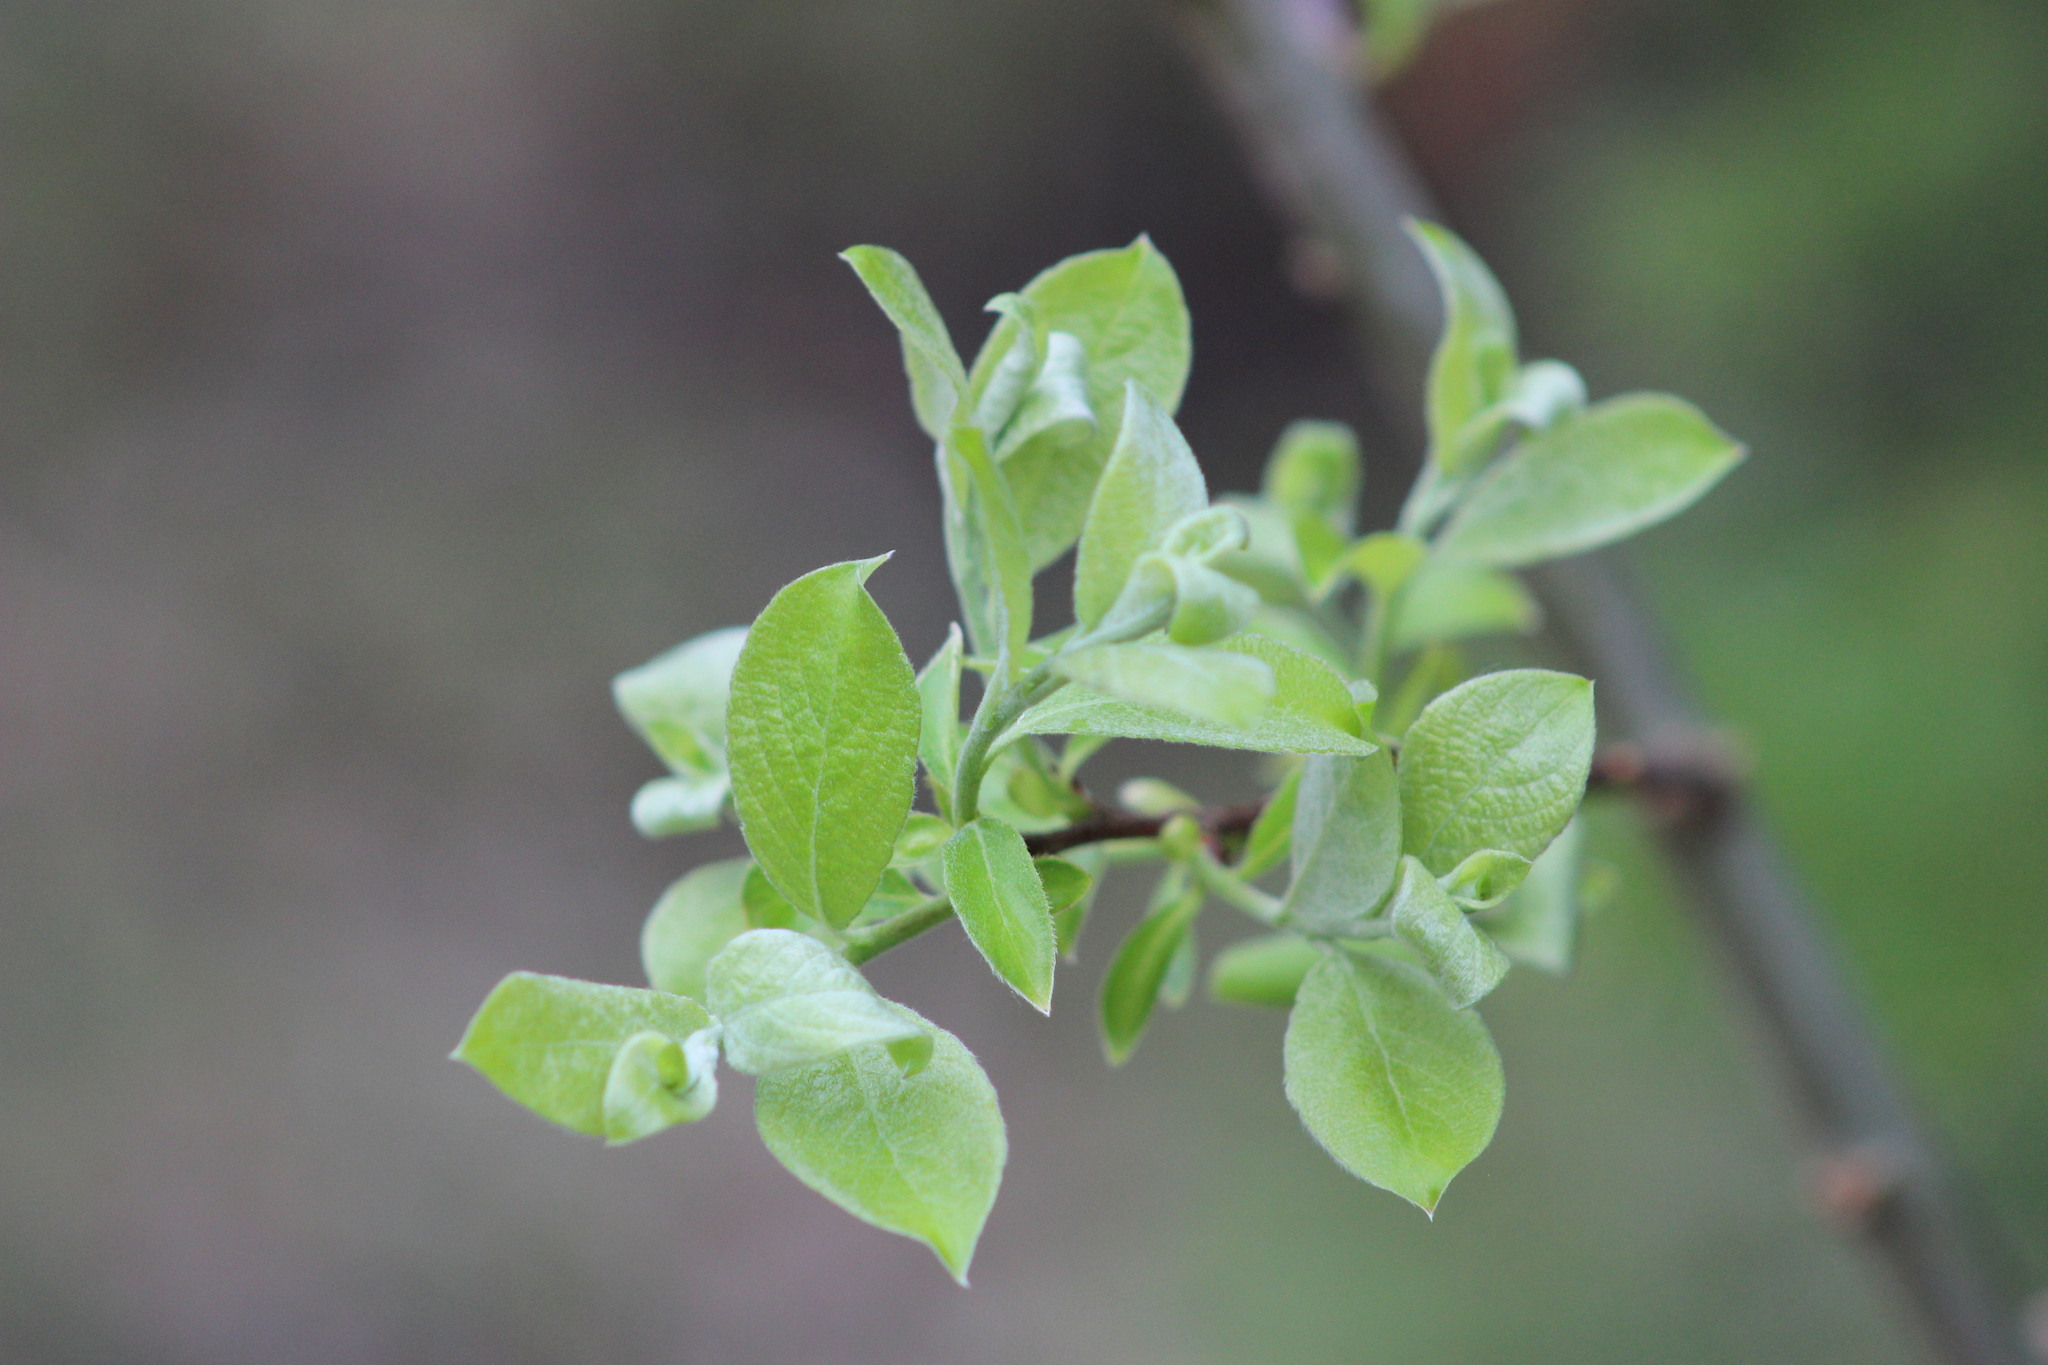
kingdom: Plantae
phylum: Tracheophyta
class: Magnoliopsida
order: Malpighiales
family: Salicaceae
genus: Salix
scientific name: Salix caprea
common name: Goat willow
